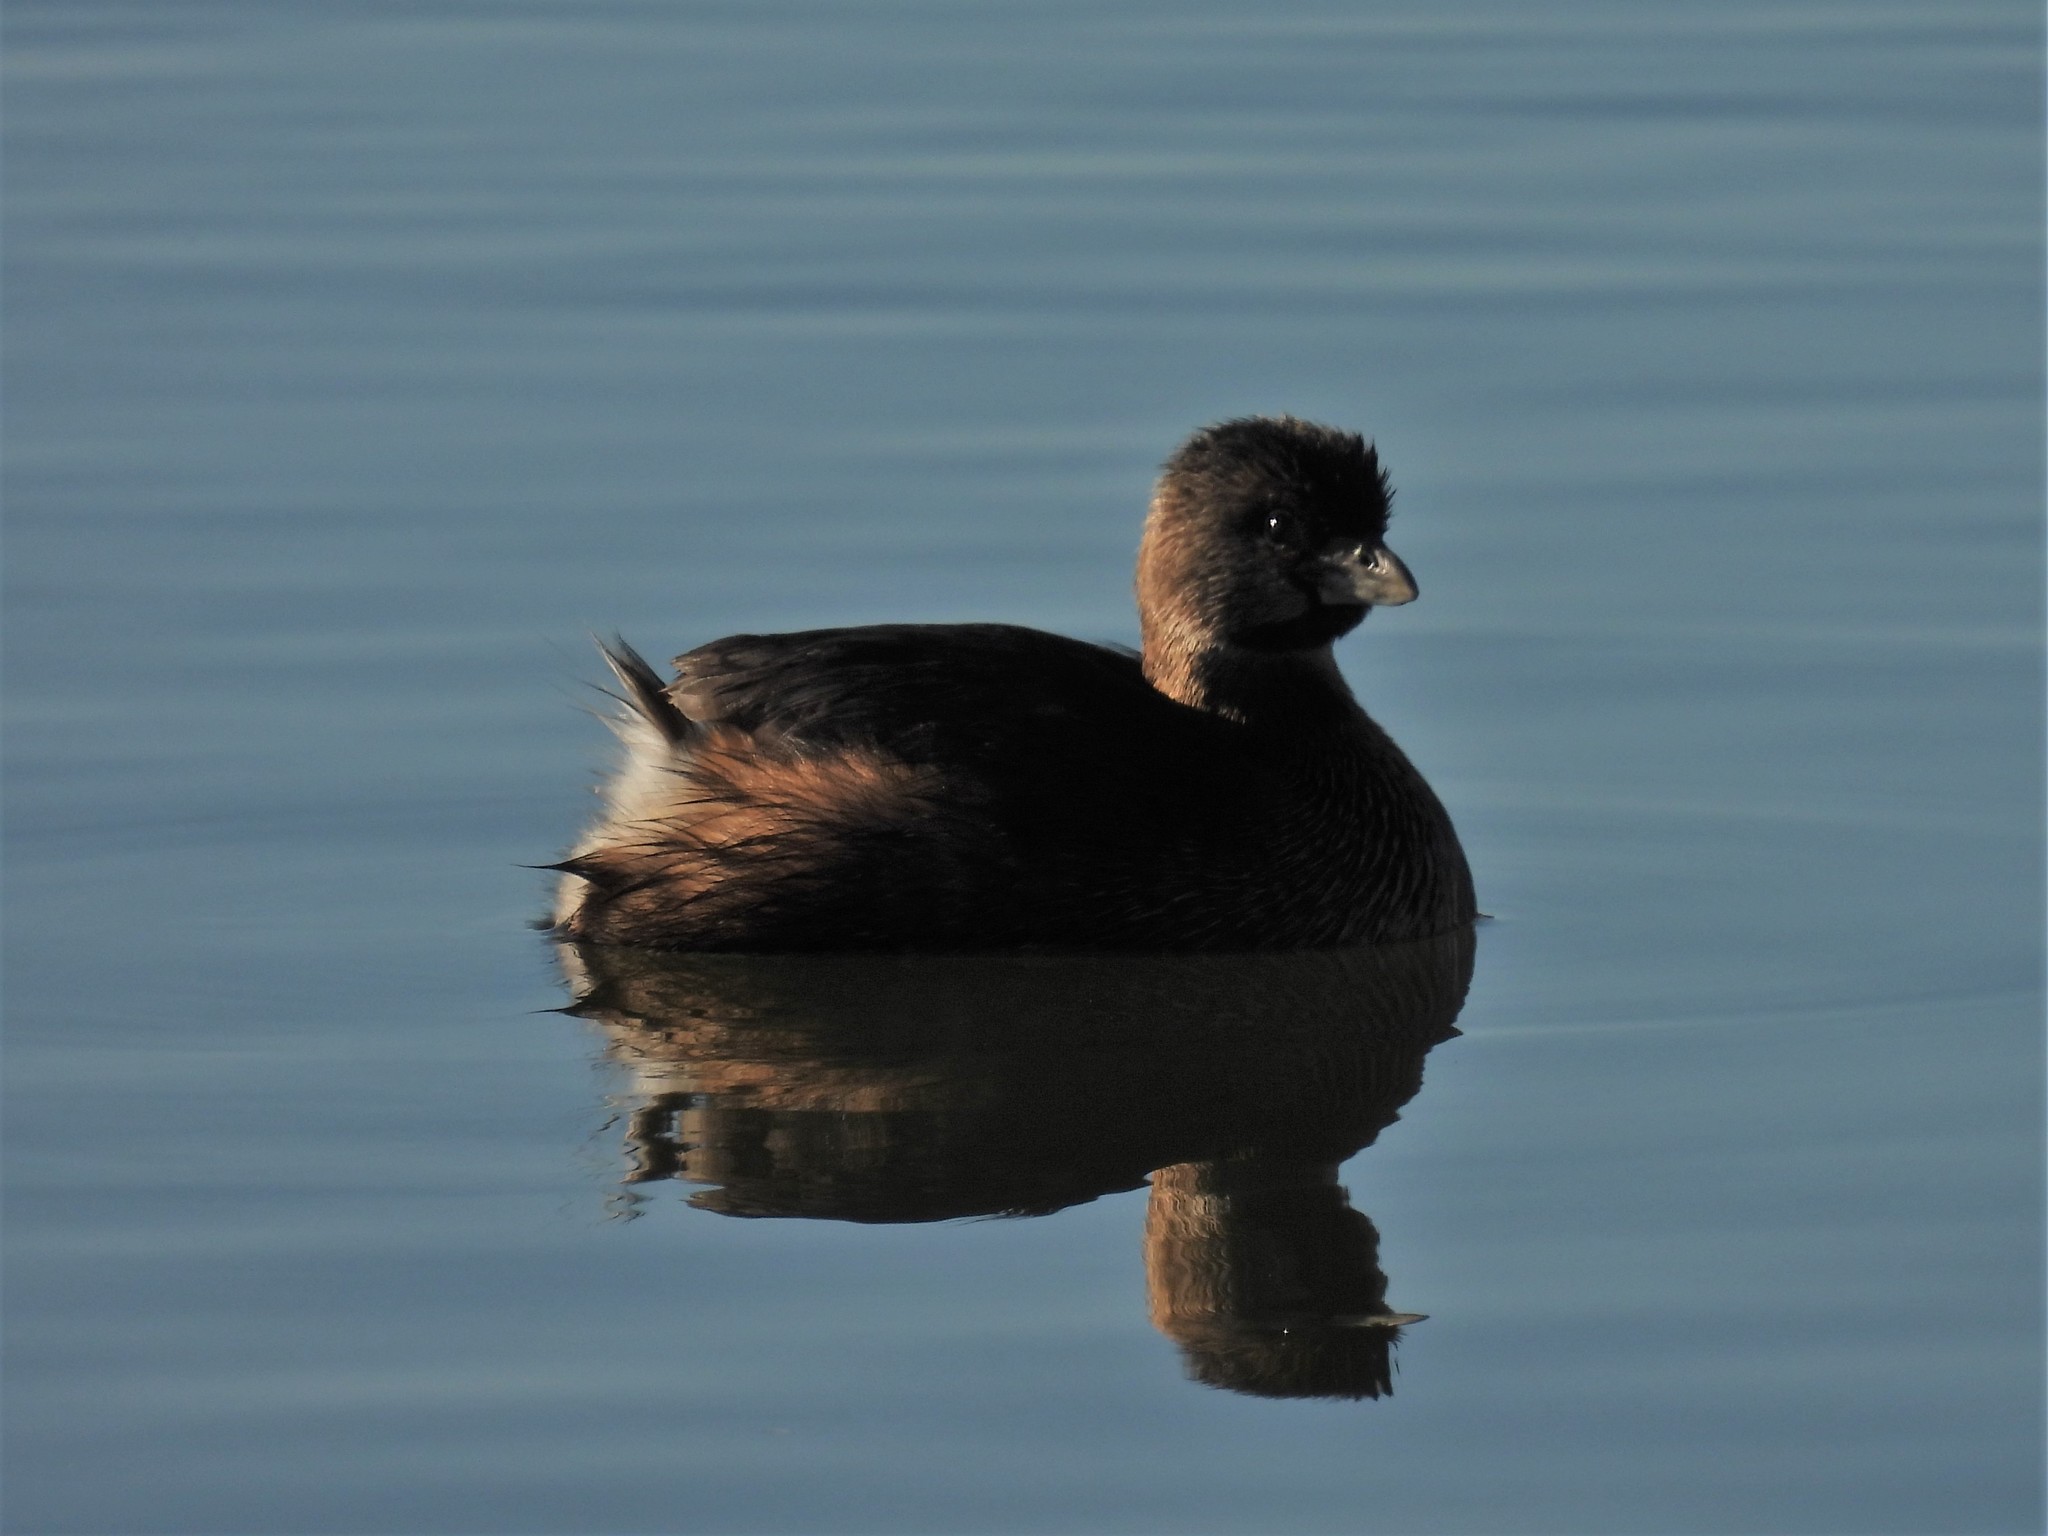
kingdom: Animalia
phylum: Chordata
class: Aves
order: Podicipediformes
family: Podicipedidae
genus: Podilymbus
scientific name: Podilymbus podiceps
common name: Pied-billed grebe
